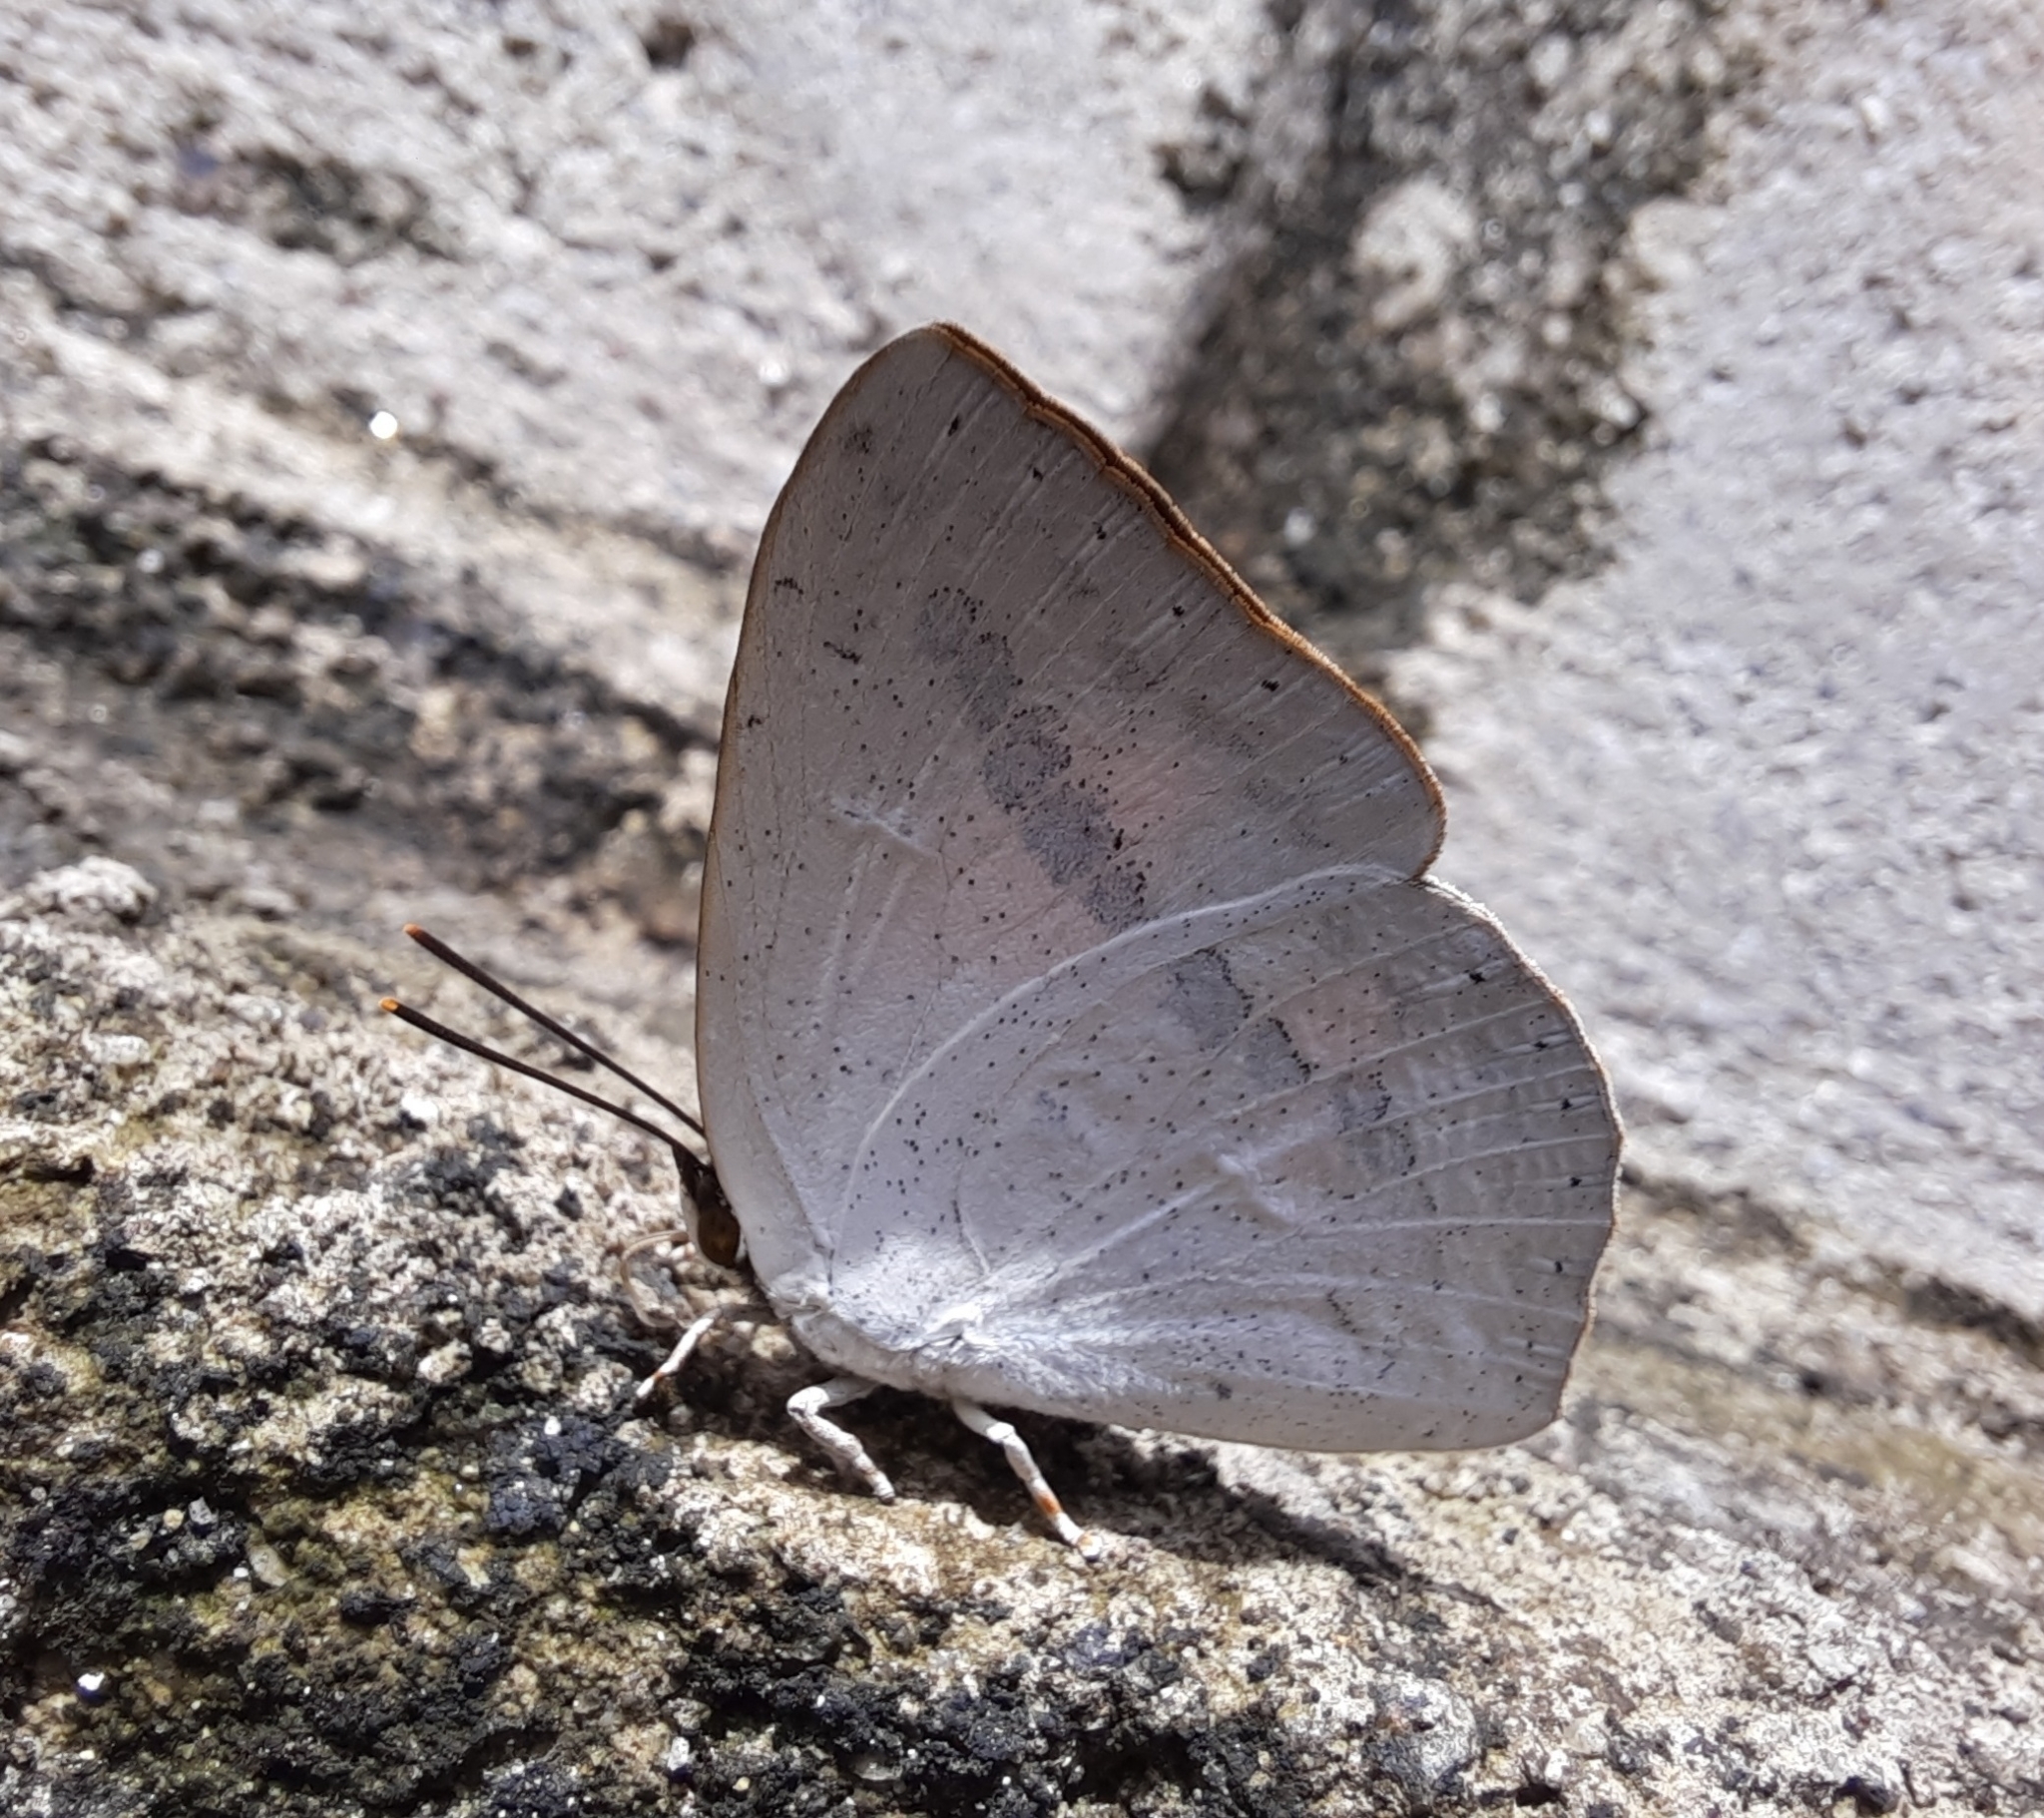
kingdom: Animalia
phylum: Arthropoda
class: Insecta
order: Lepidoptera
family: Lycaenidae
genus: Curetis
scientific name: Curetis siva
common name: Shiva sunbeam
